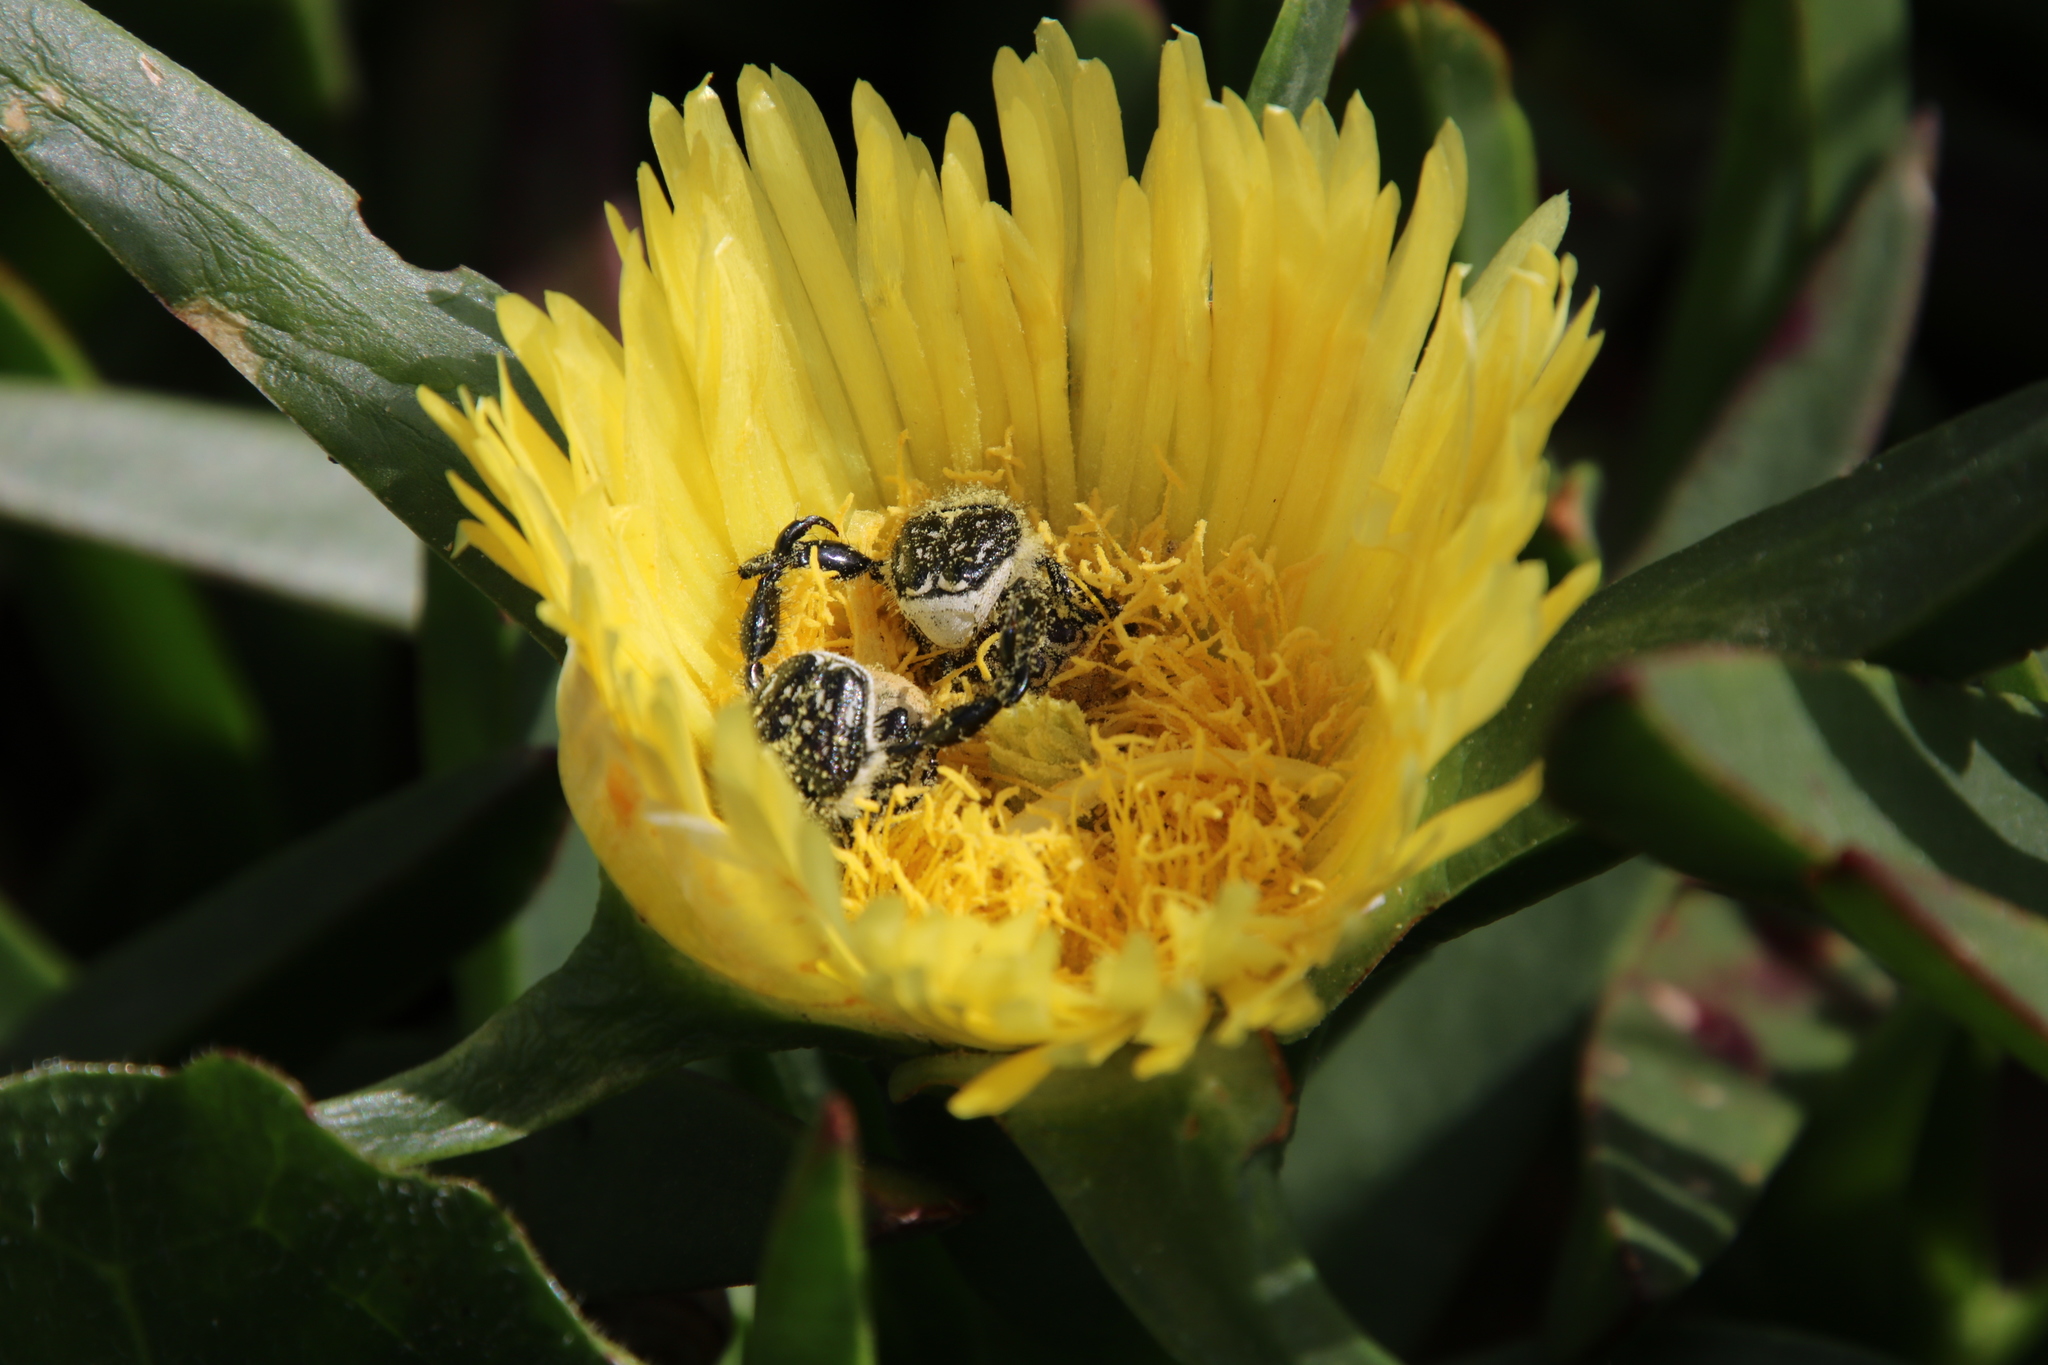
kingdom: Plantae
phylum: Tracheophyta
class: Magnoliopsida
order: Caryophyllales
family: Aizoaceae
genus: Carpobrotus
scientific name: Carpobrotus edulis
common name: Hottentot-fig
